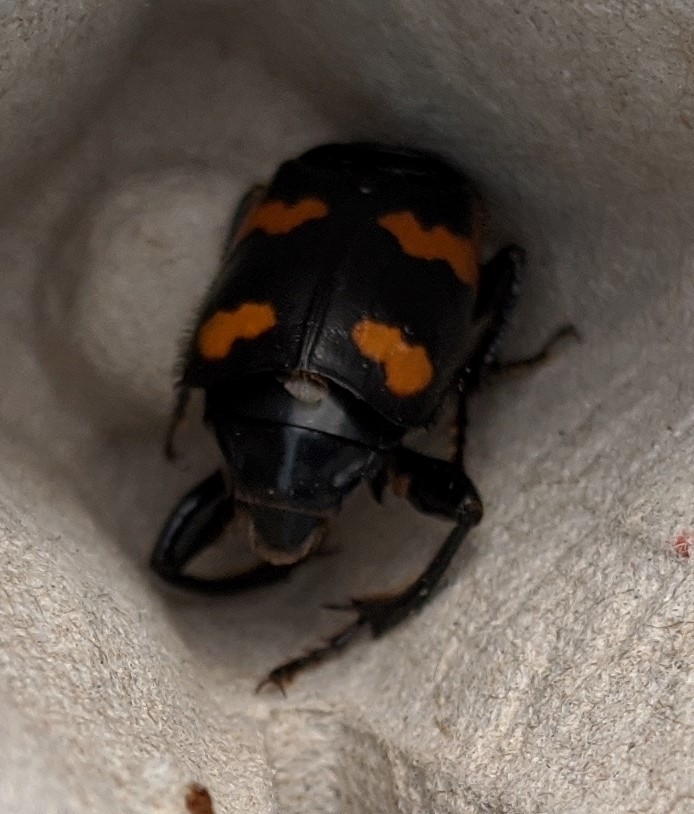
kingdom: Animalia
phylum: Arthropoda
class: Insecta
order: Coleoptera
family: Staphylinidae
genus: Nicrophorus
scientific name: Nicrophorus sayi
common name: Say's burying beetle
